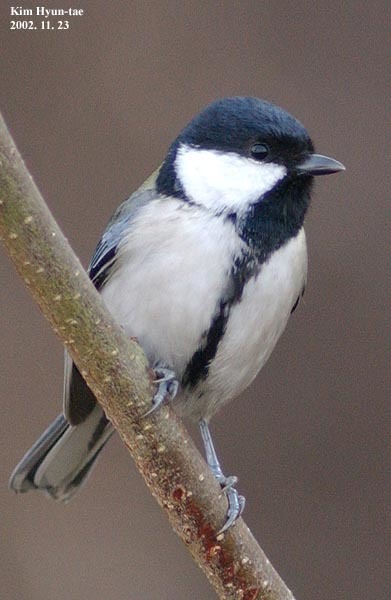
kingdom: Animalia
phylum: Chordata
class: Aves
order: Passeriformes
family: Paridae
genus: Parus
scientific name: Parus minor
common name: Japanese tit
